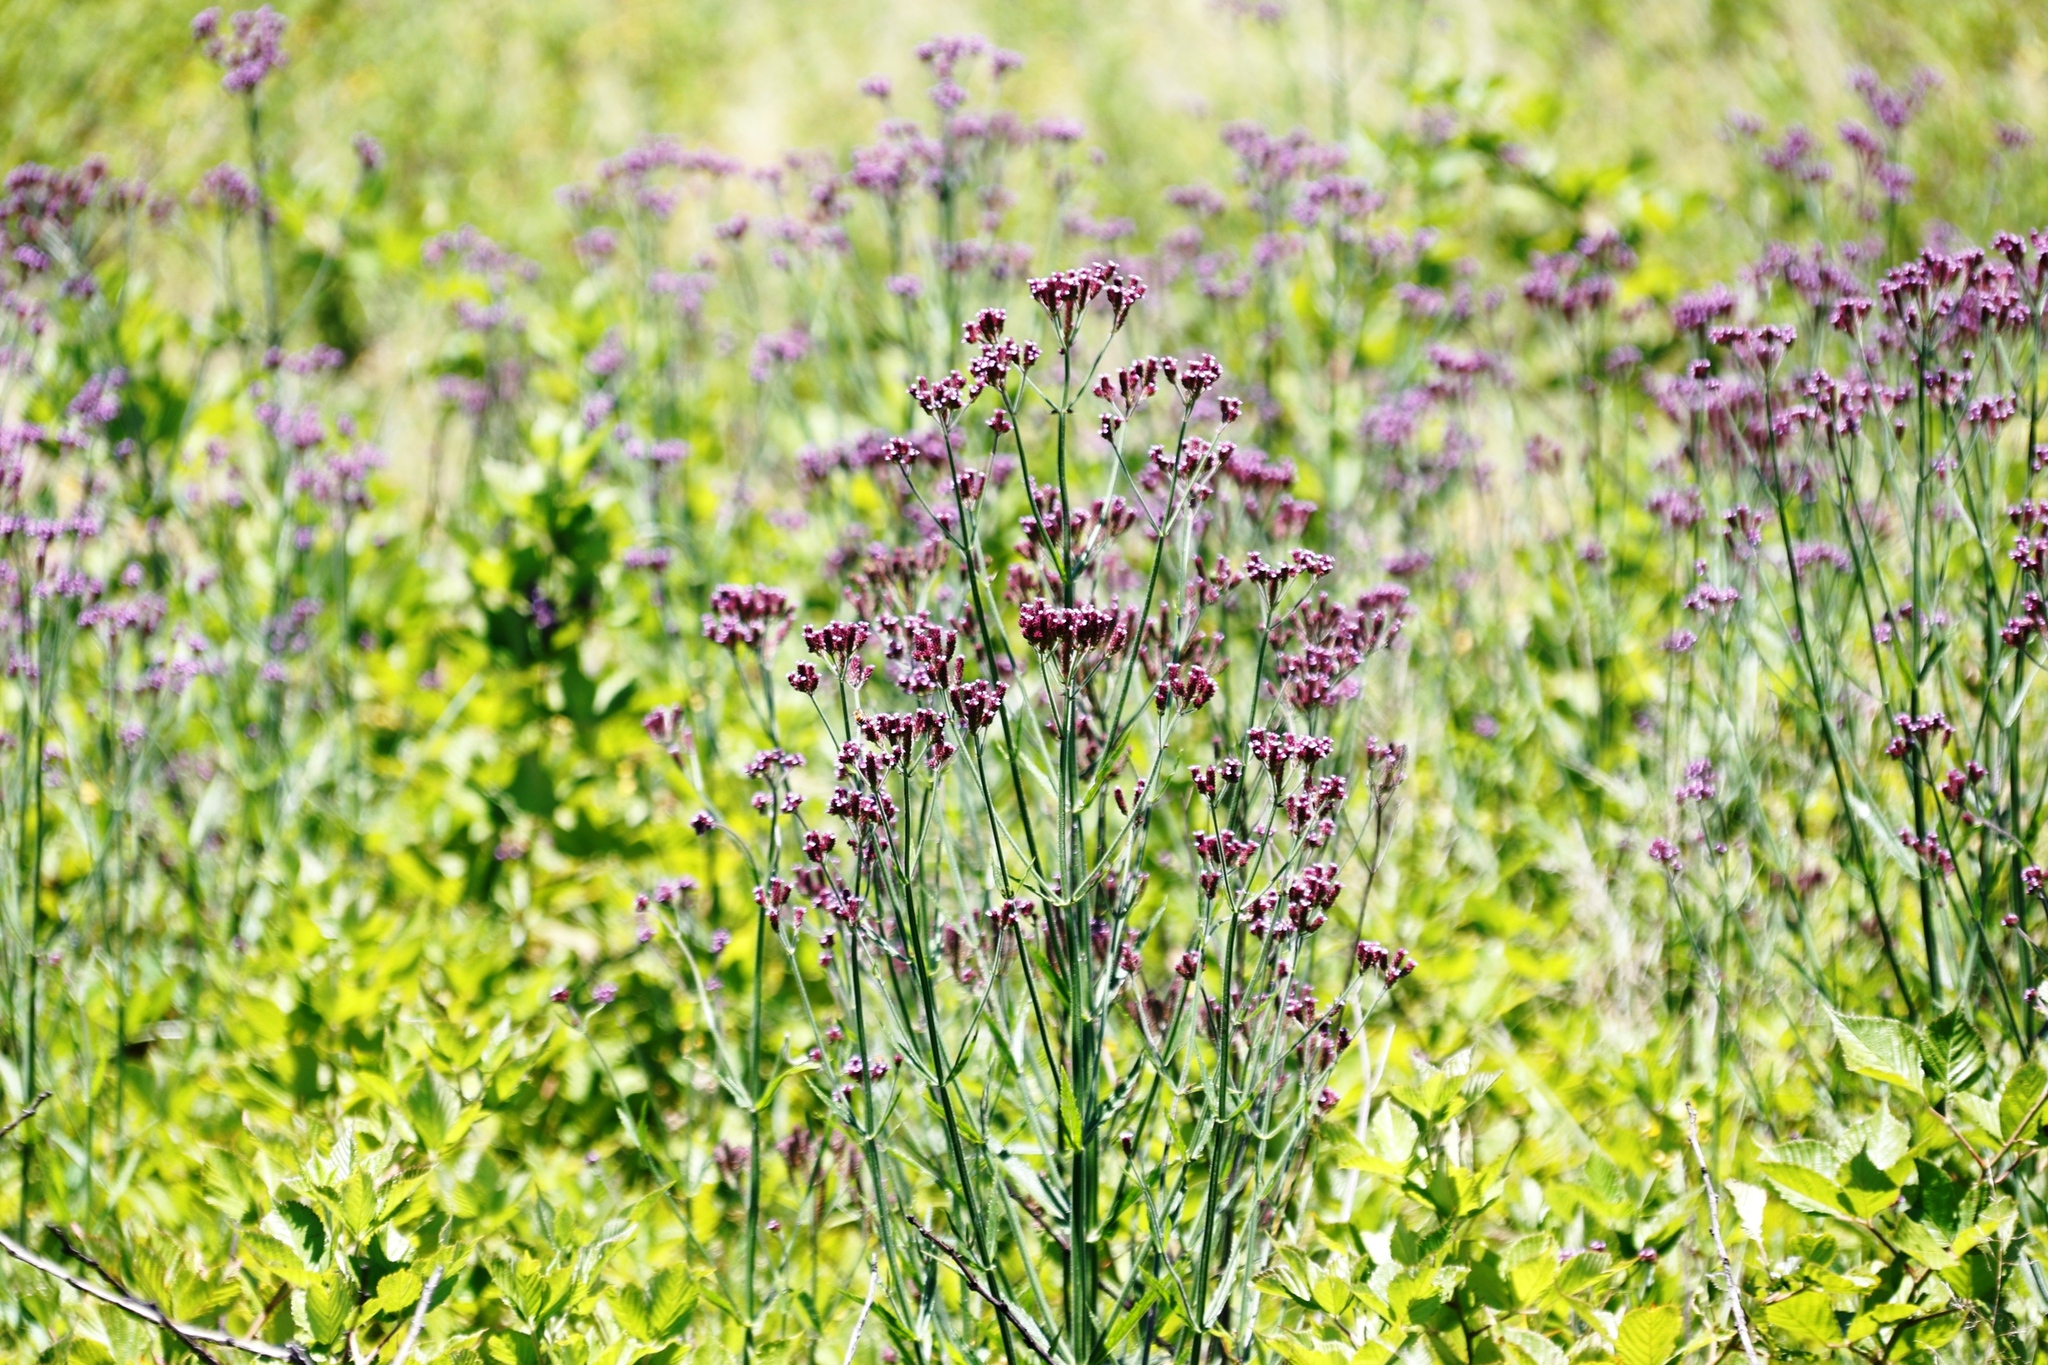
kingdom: Plantae
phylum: Tracheophyta
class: Magnoliopsida
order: Lamiales
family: Verbenaceae
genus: Verbena
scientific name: Verbena bonariensis
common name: Purpletop vervain
